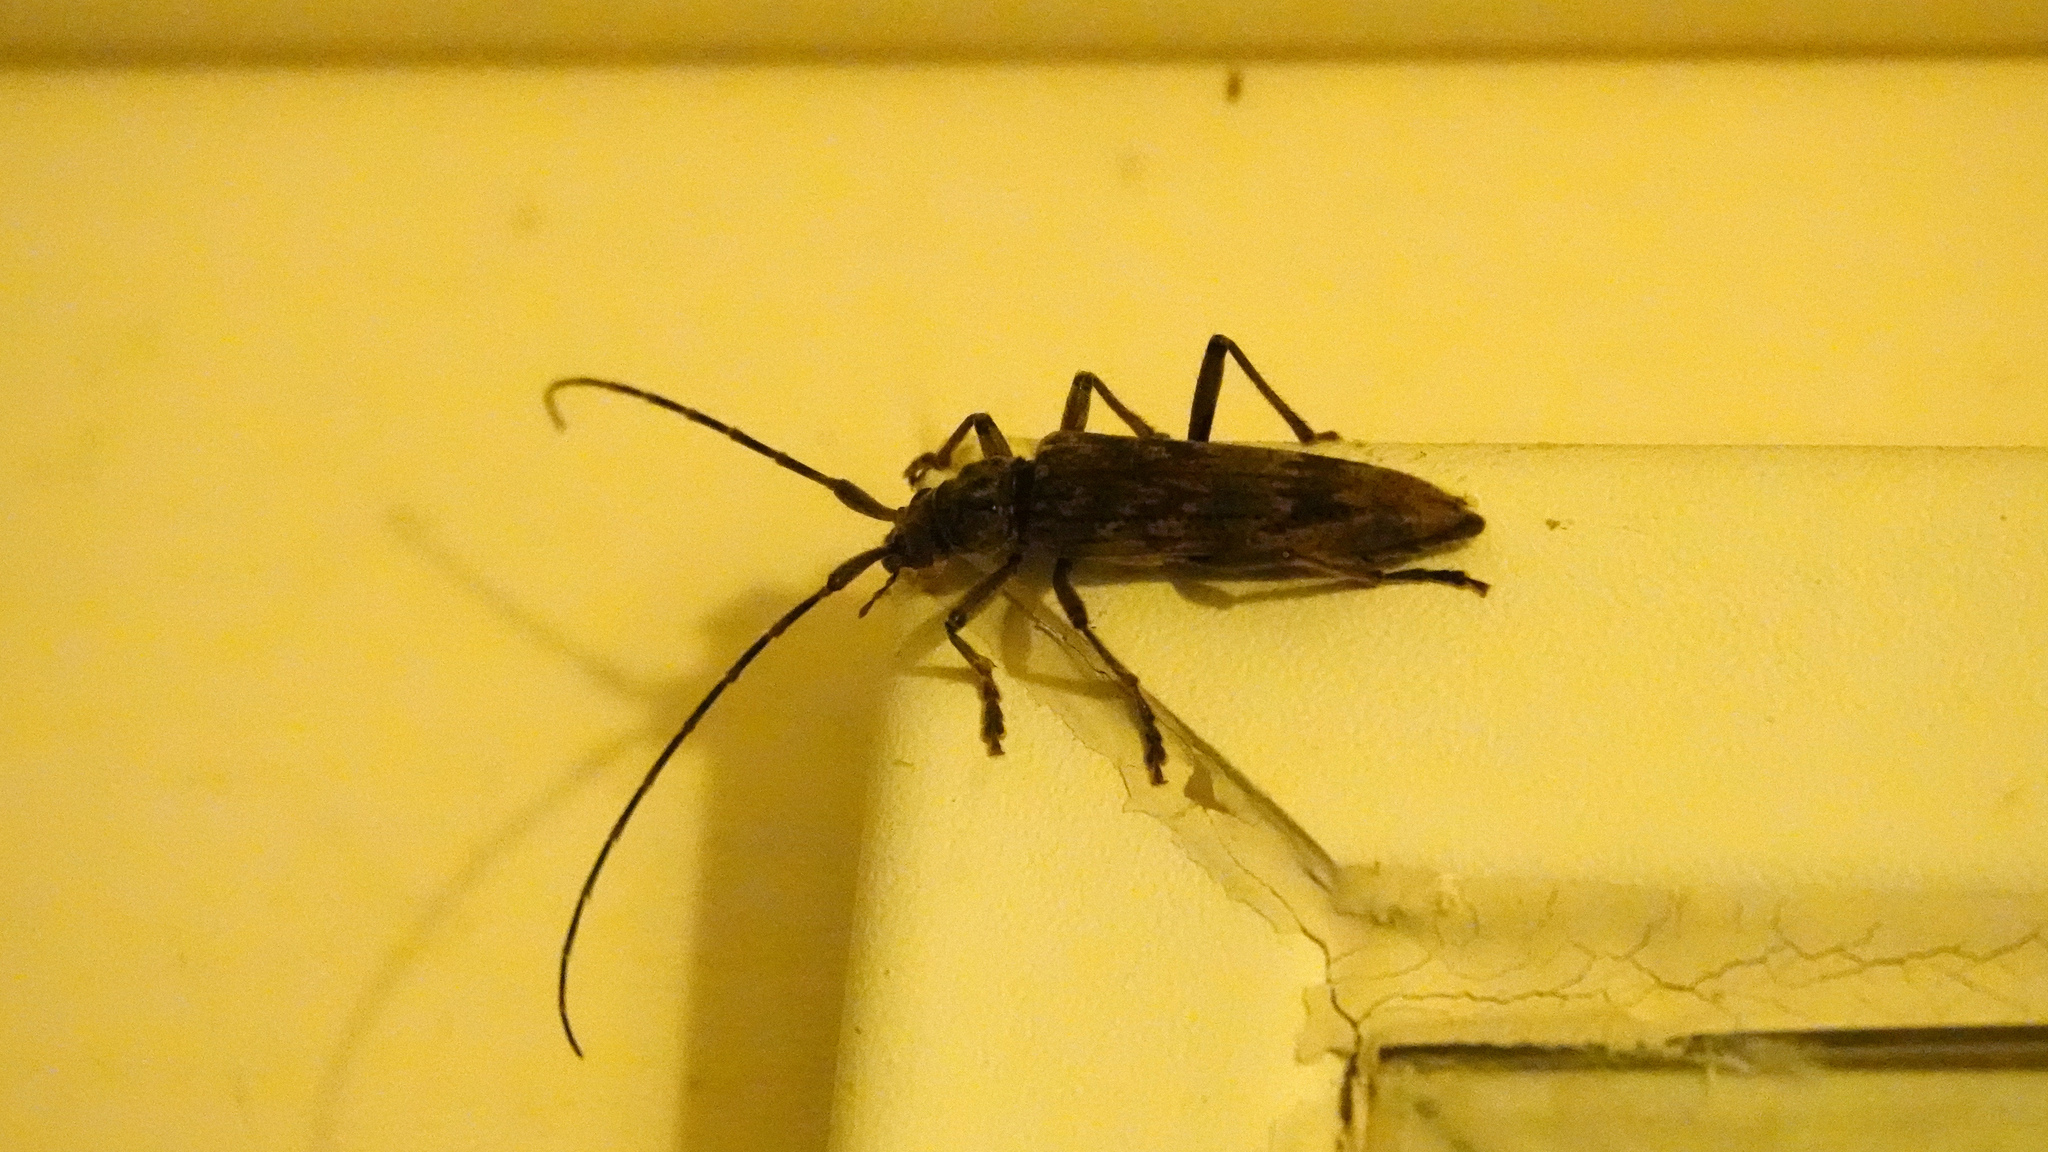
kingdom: Animalia
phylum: Arthropoda
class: Insecta
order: Coleoptera
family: Cerambycidae
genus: Elytrimitatrix
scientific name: Elytrimitatrix undata
